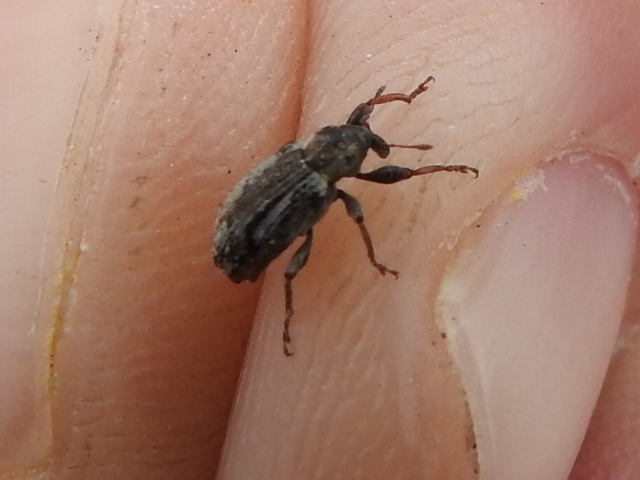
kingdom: Animalia
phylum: Arthropoda
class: Insecta
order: Coleoptera
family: Curculionidae
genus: Hypera
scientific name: Hypera postica
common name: Weevil
